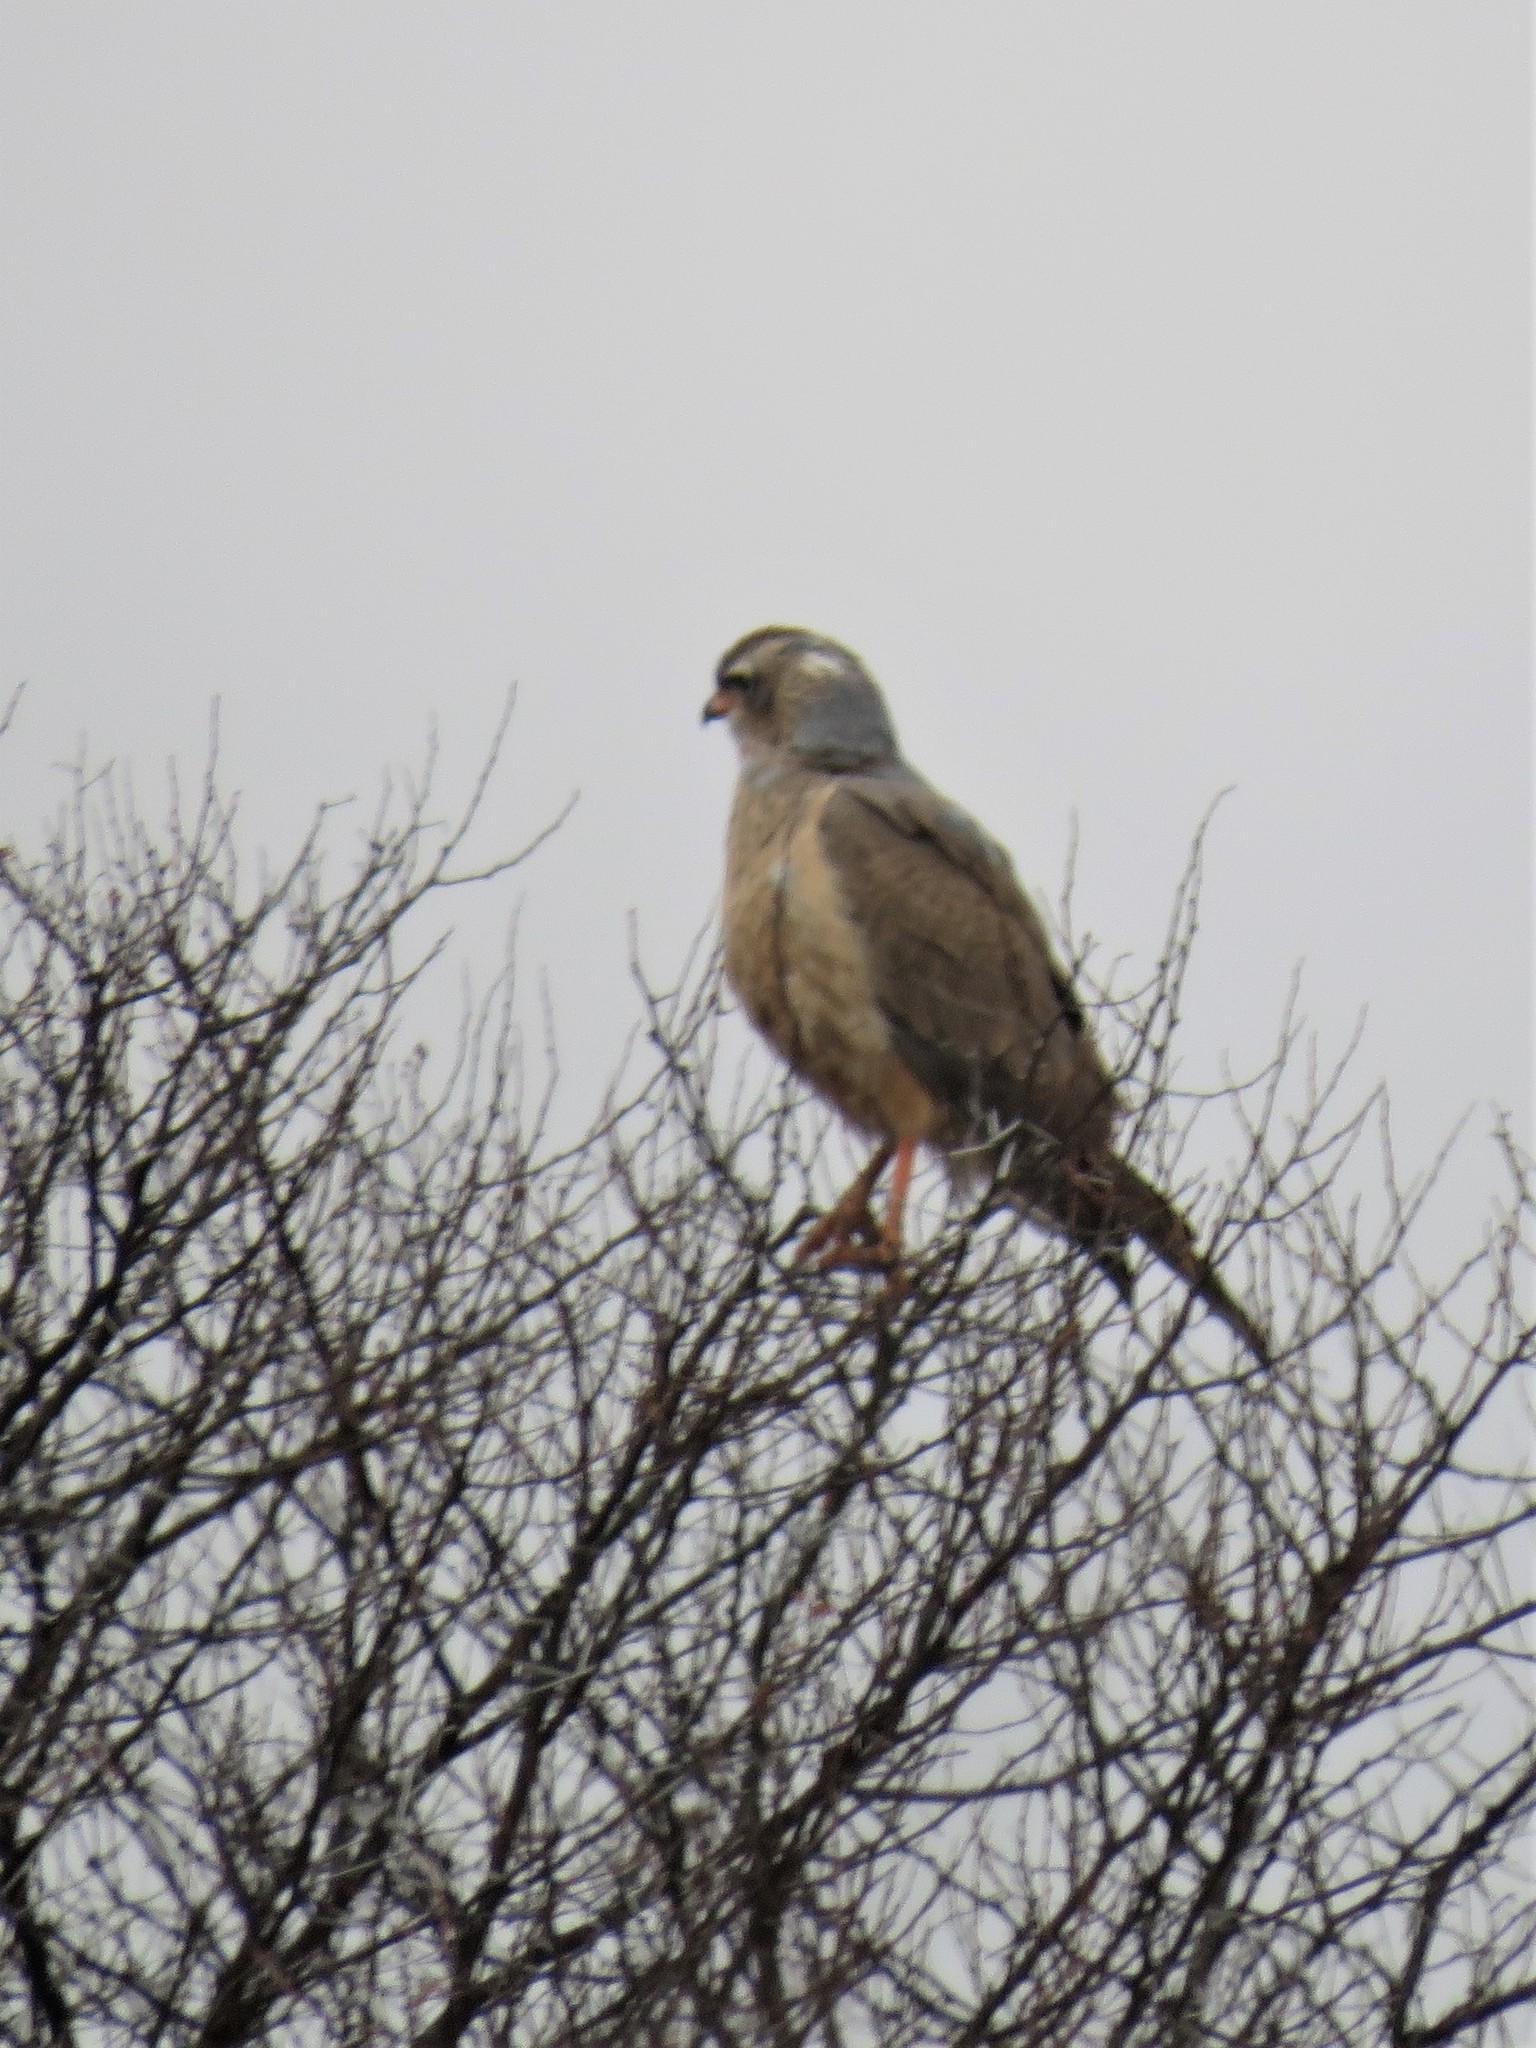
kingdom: Animalia
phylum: Chordata
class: Aves
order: Accipitriformes
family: Accipitridae
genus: Melierax
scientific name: Melierax canorus
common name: Pale chanting-goshawk
